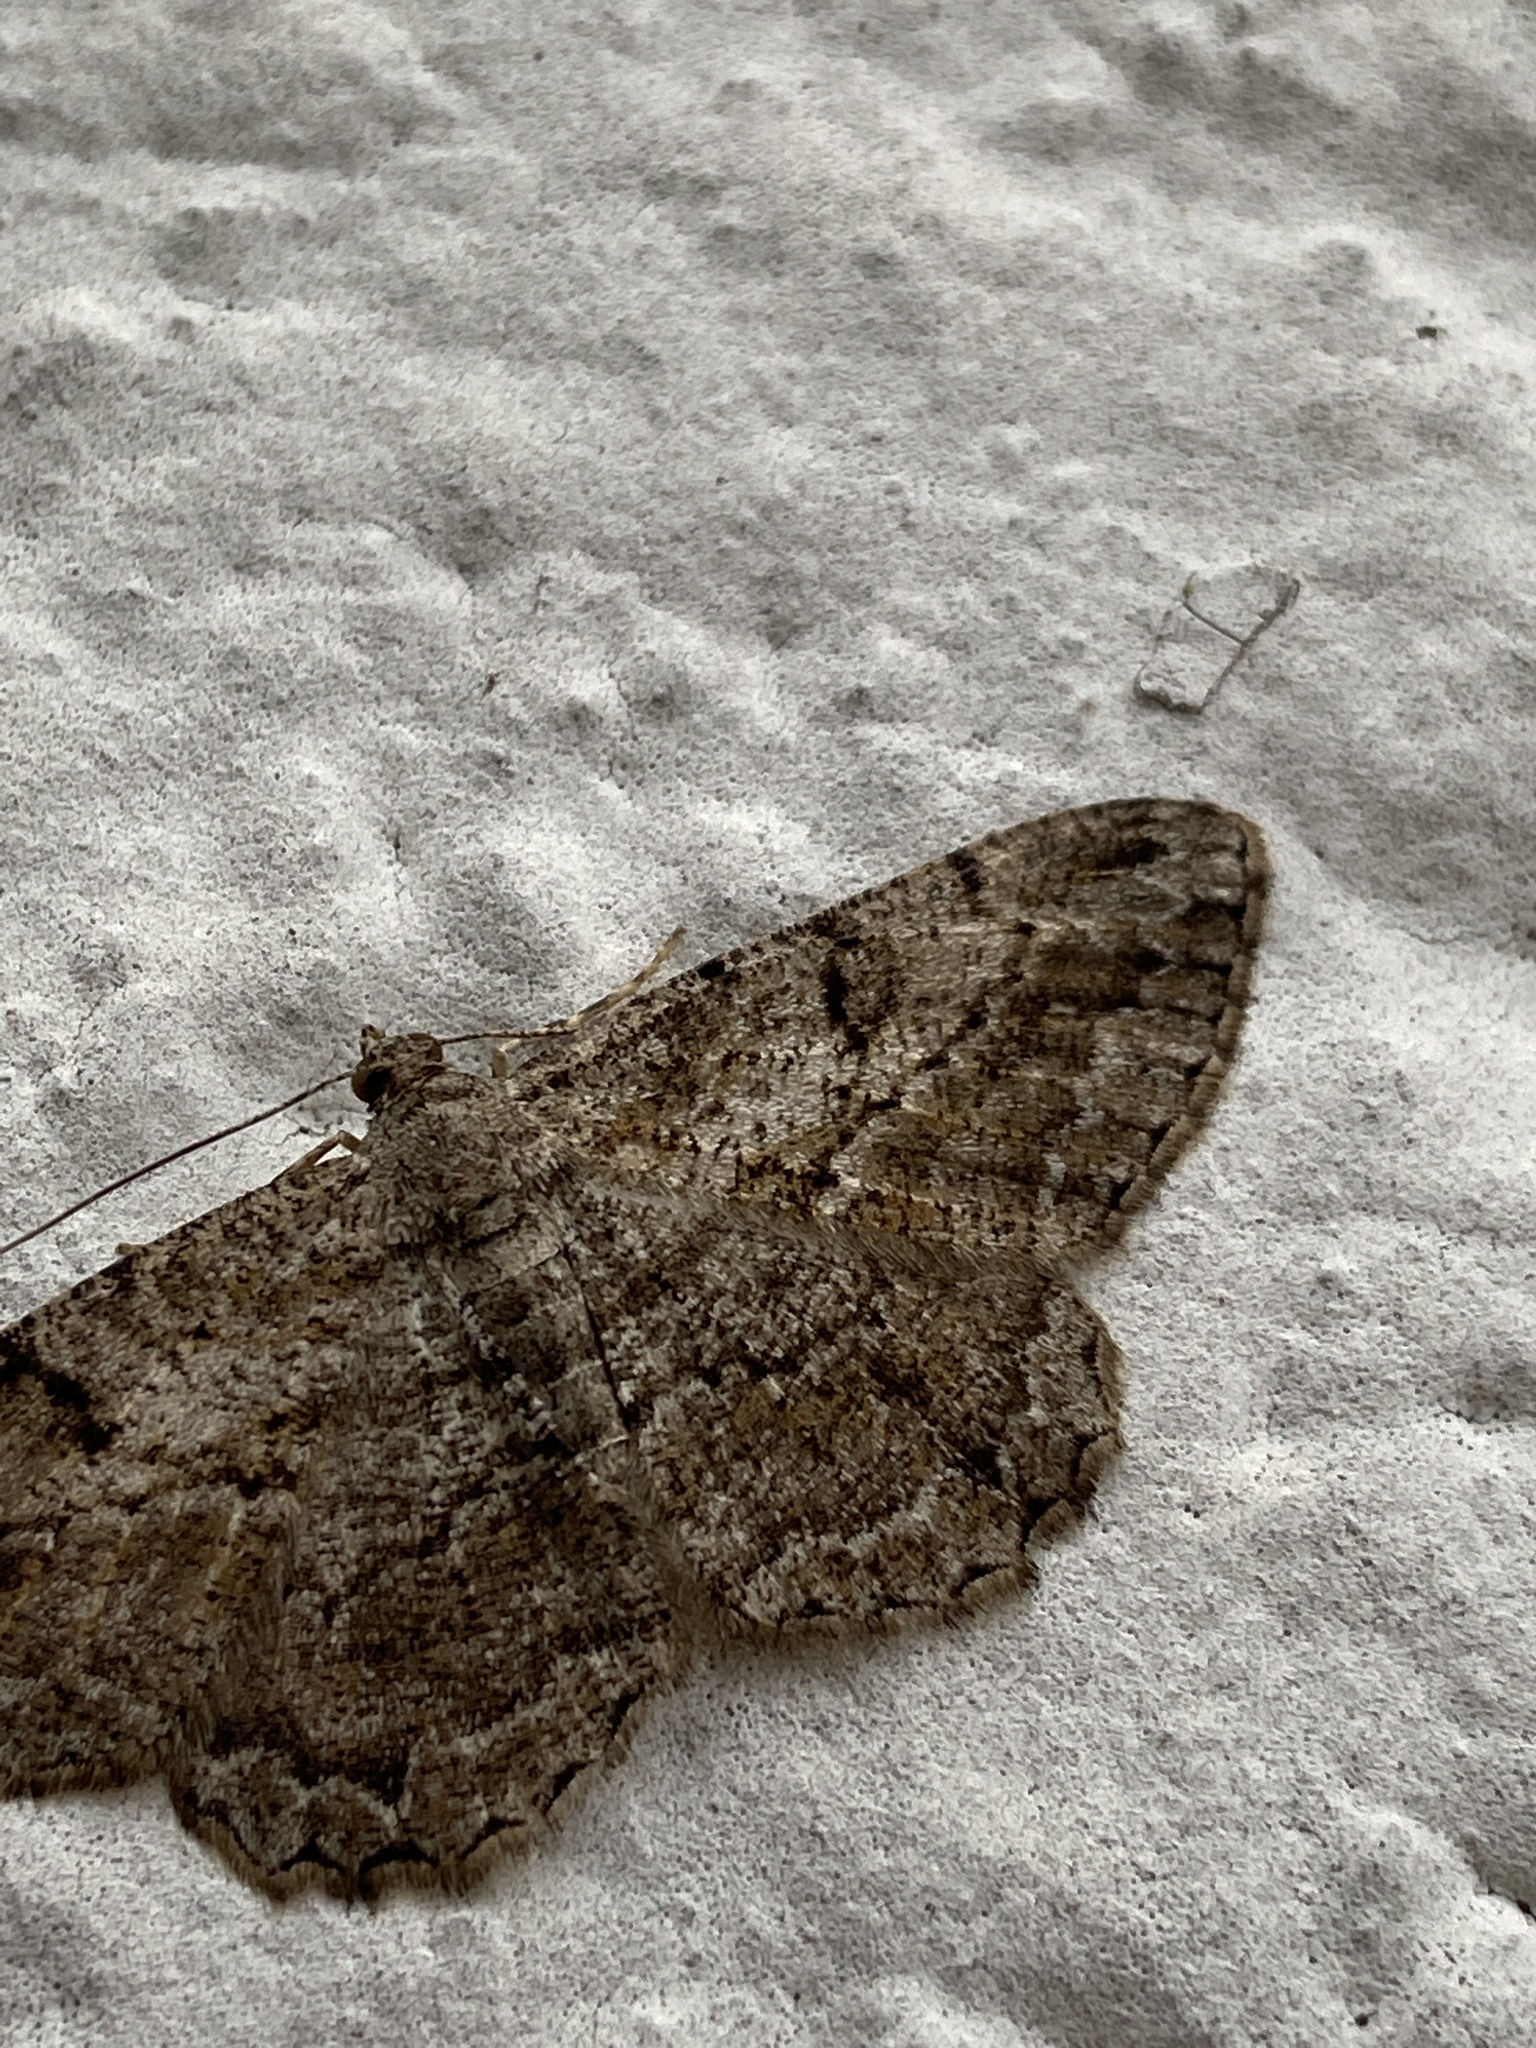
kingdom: Animalia
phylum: Arthropoda
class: Insecta
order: Lepidoptera
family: Geometridae
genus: Peribatodes
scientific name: Peribatodes rhomboidaria
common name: Willow beauty
